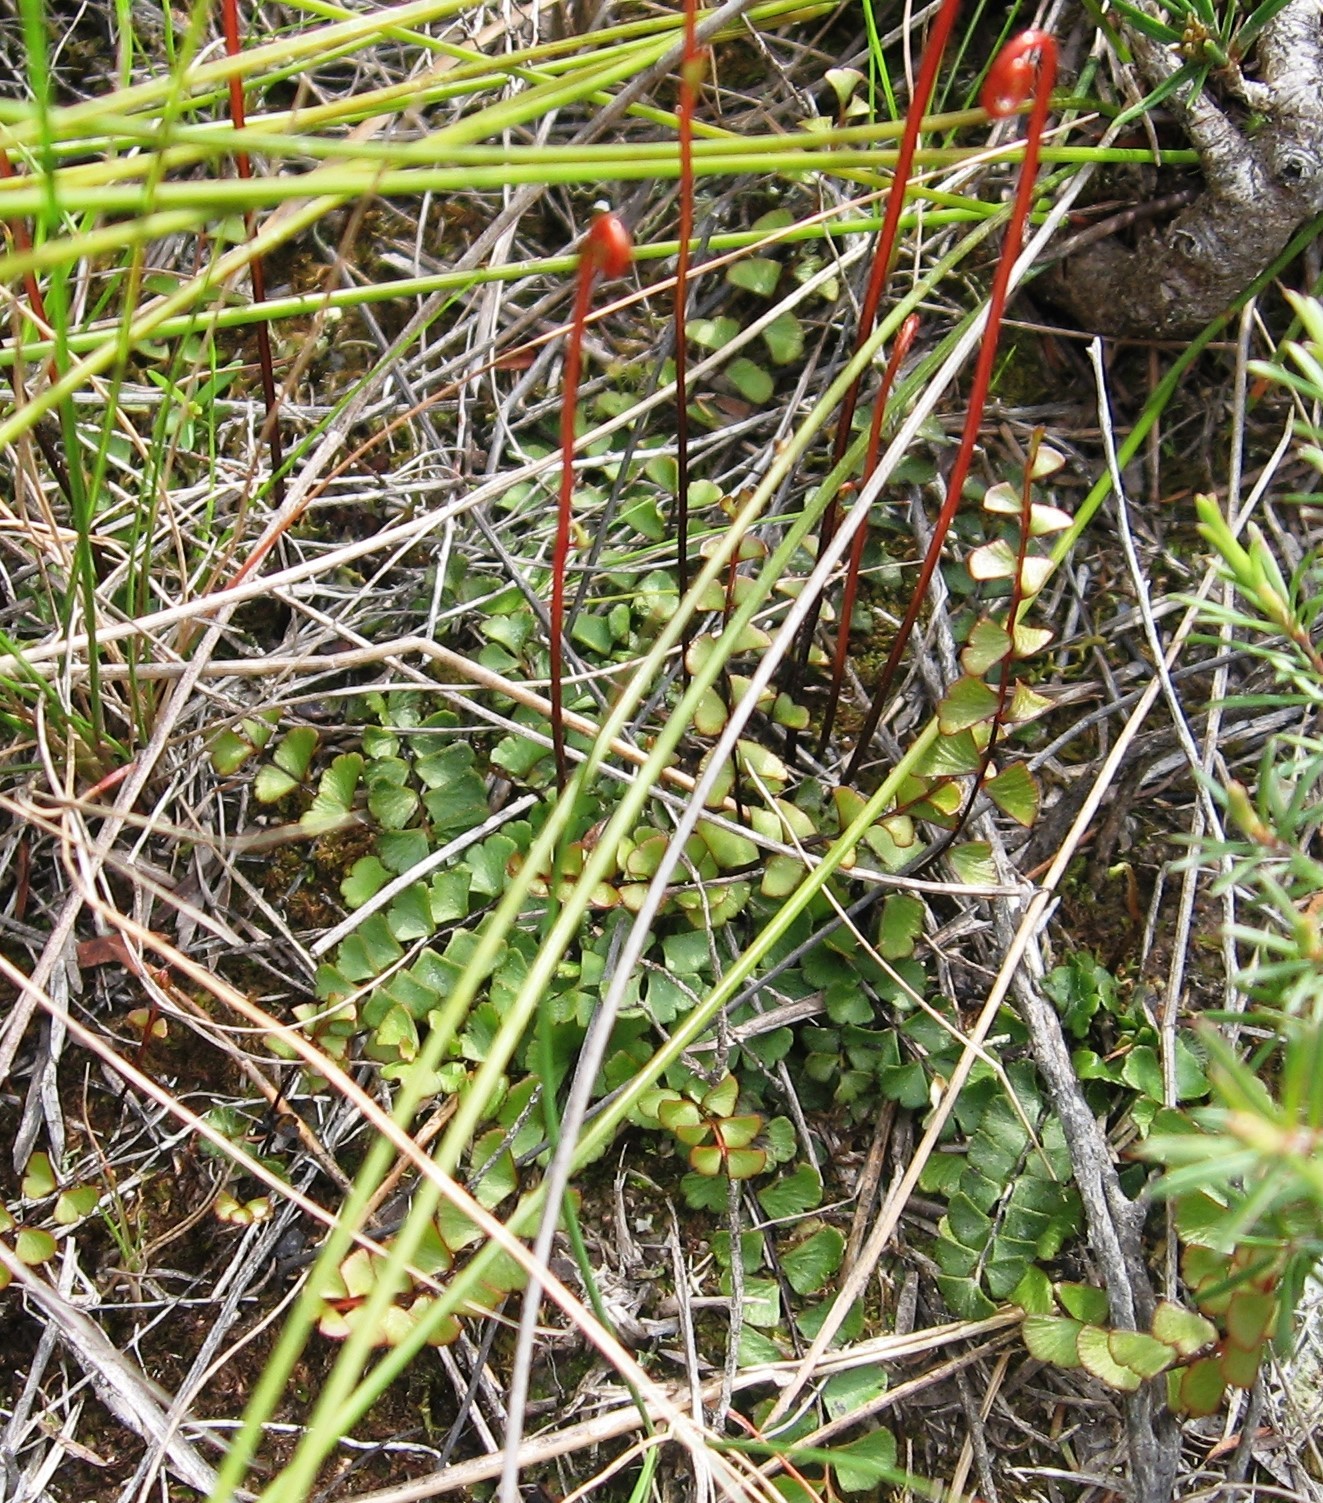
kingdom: Plantae
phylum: Tracheophyta
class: Polypodiopsida
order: Polypodiales
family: Lindsaeaceae
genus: Lindsaea
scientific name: Lindsaea linearis
